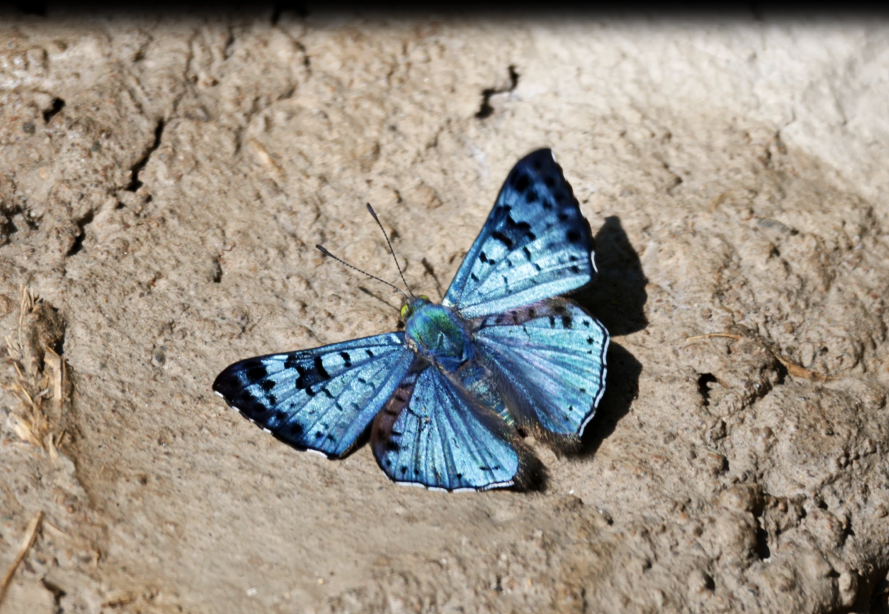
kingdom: Animalia
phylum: Arthropoda
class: Insecta
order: Lepidoptera
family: Riodinidae
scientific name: Riodinidae
